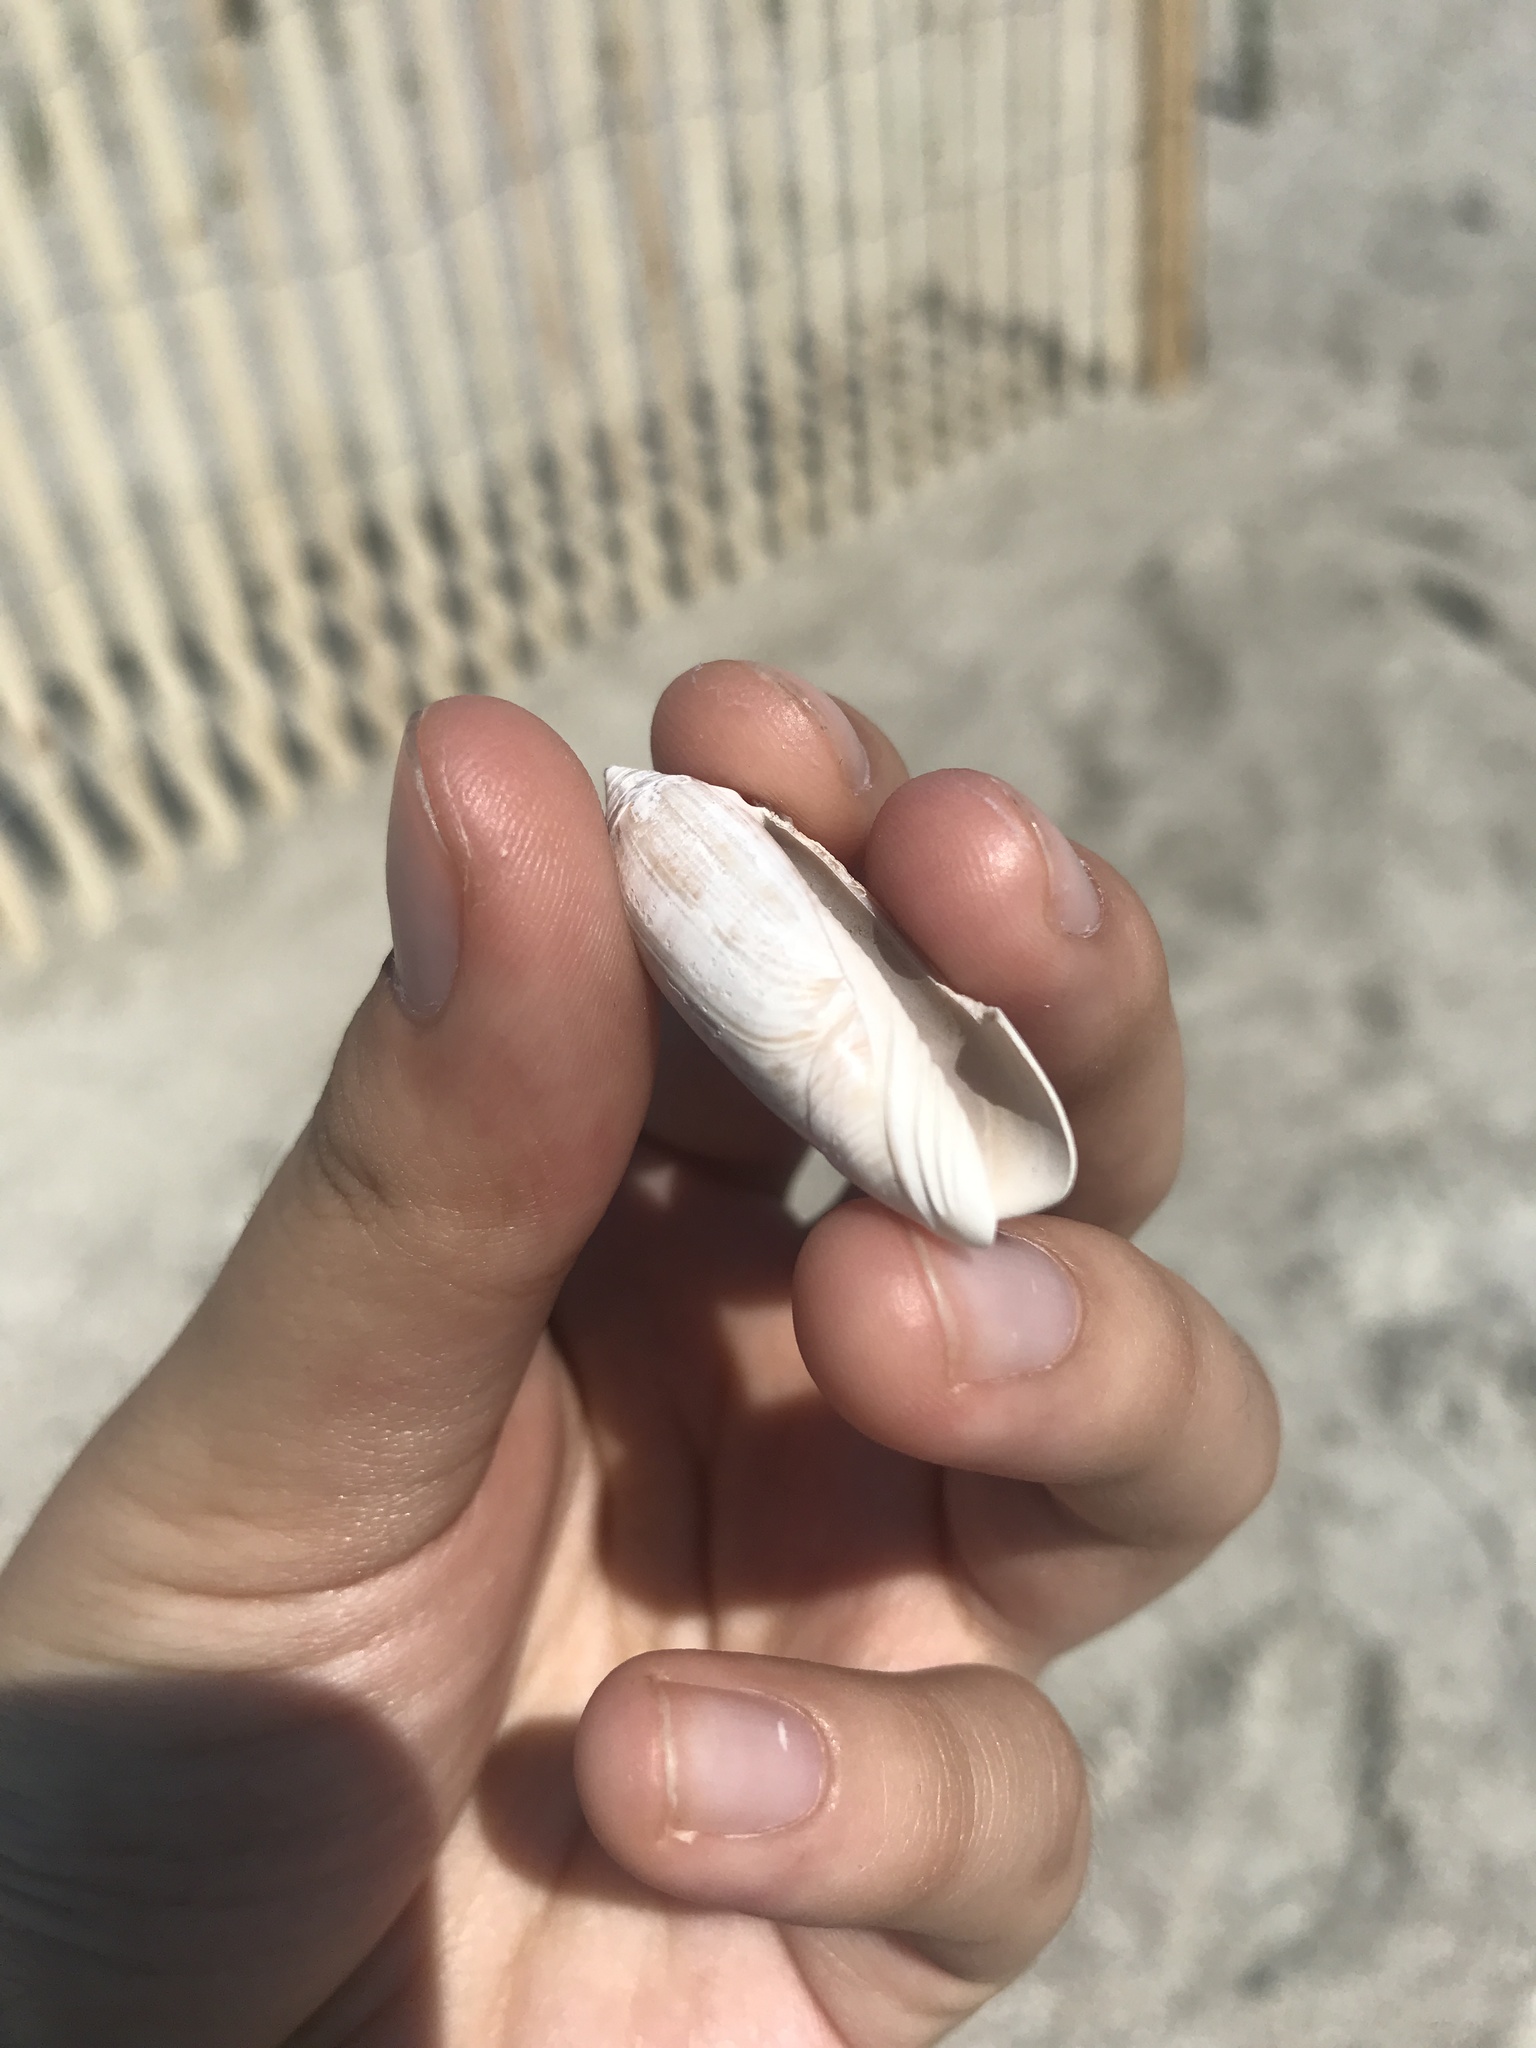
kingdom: Animalia
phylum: Mollusca
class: Gastropoda
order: Neogastropoda
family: Olividae
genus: Oliva
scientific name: Oliva sayana
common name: Lettered olive
